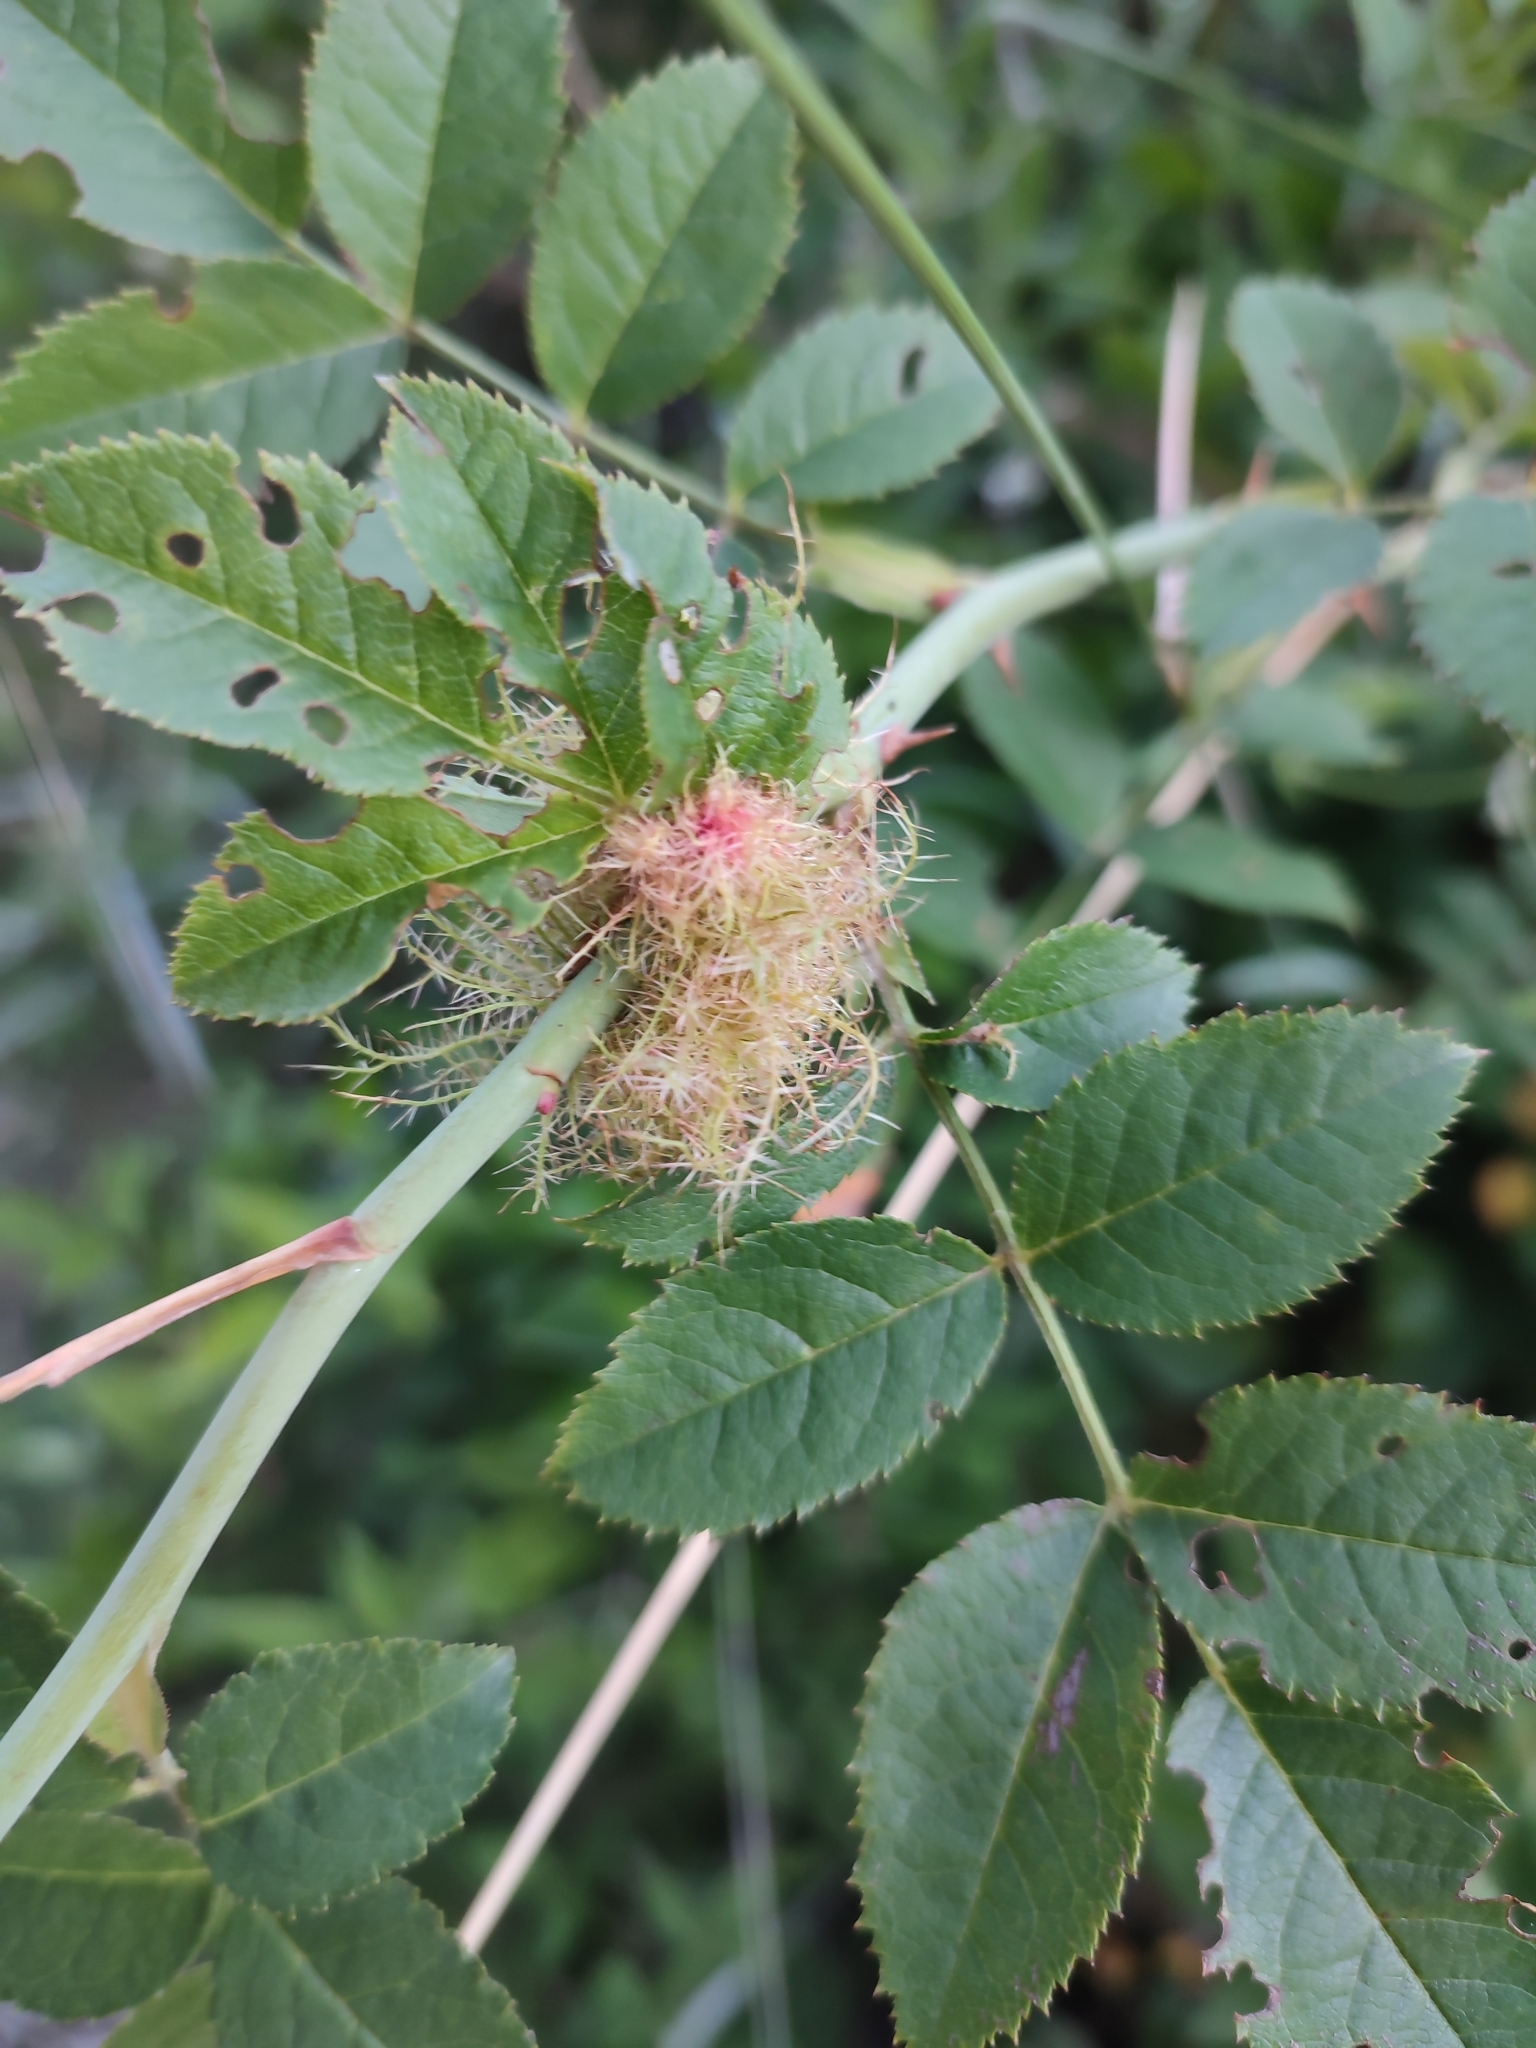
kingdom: Animalia
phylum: Arthropoda
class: Insecta
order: Hymenoptera
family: Cynipidae
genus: Diplolepis
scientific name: Diplolepis rosae
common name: Bedeguar gall
